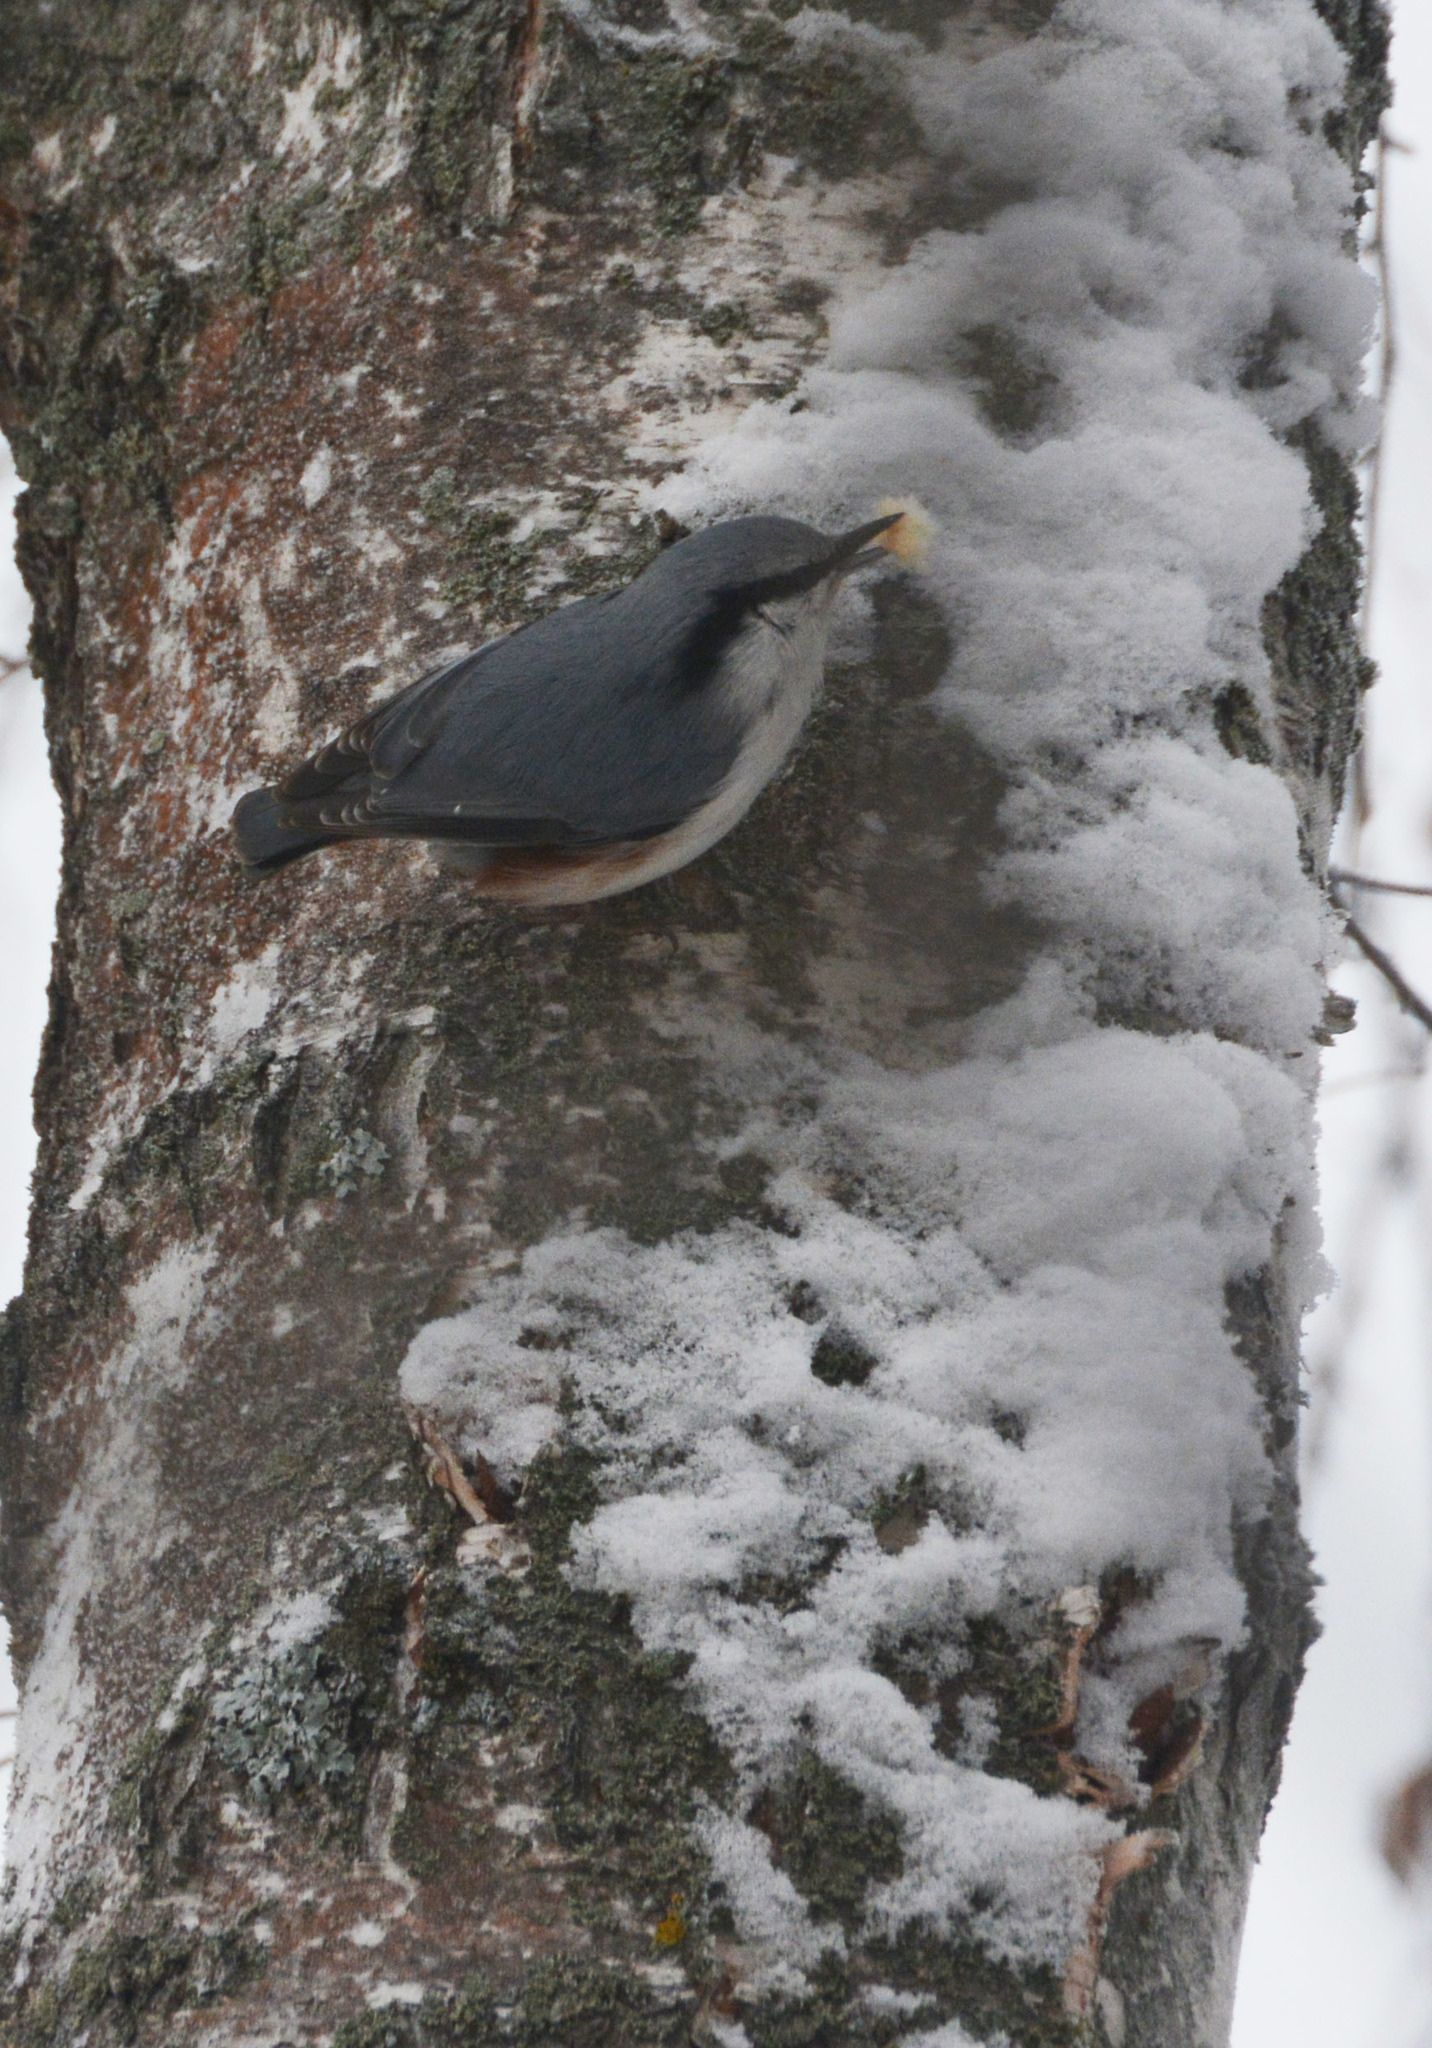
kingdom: Animalia
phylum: Chordata
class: Aves
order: Passeriformes
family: Sittidae
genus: Sitta
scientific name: Sitta europaea
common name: Eurasian nuthatch
